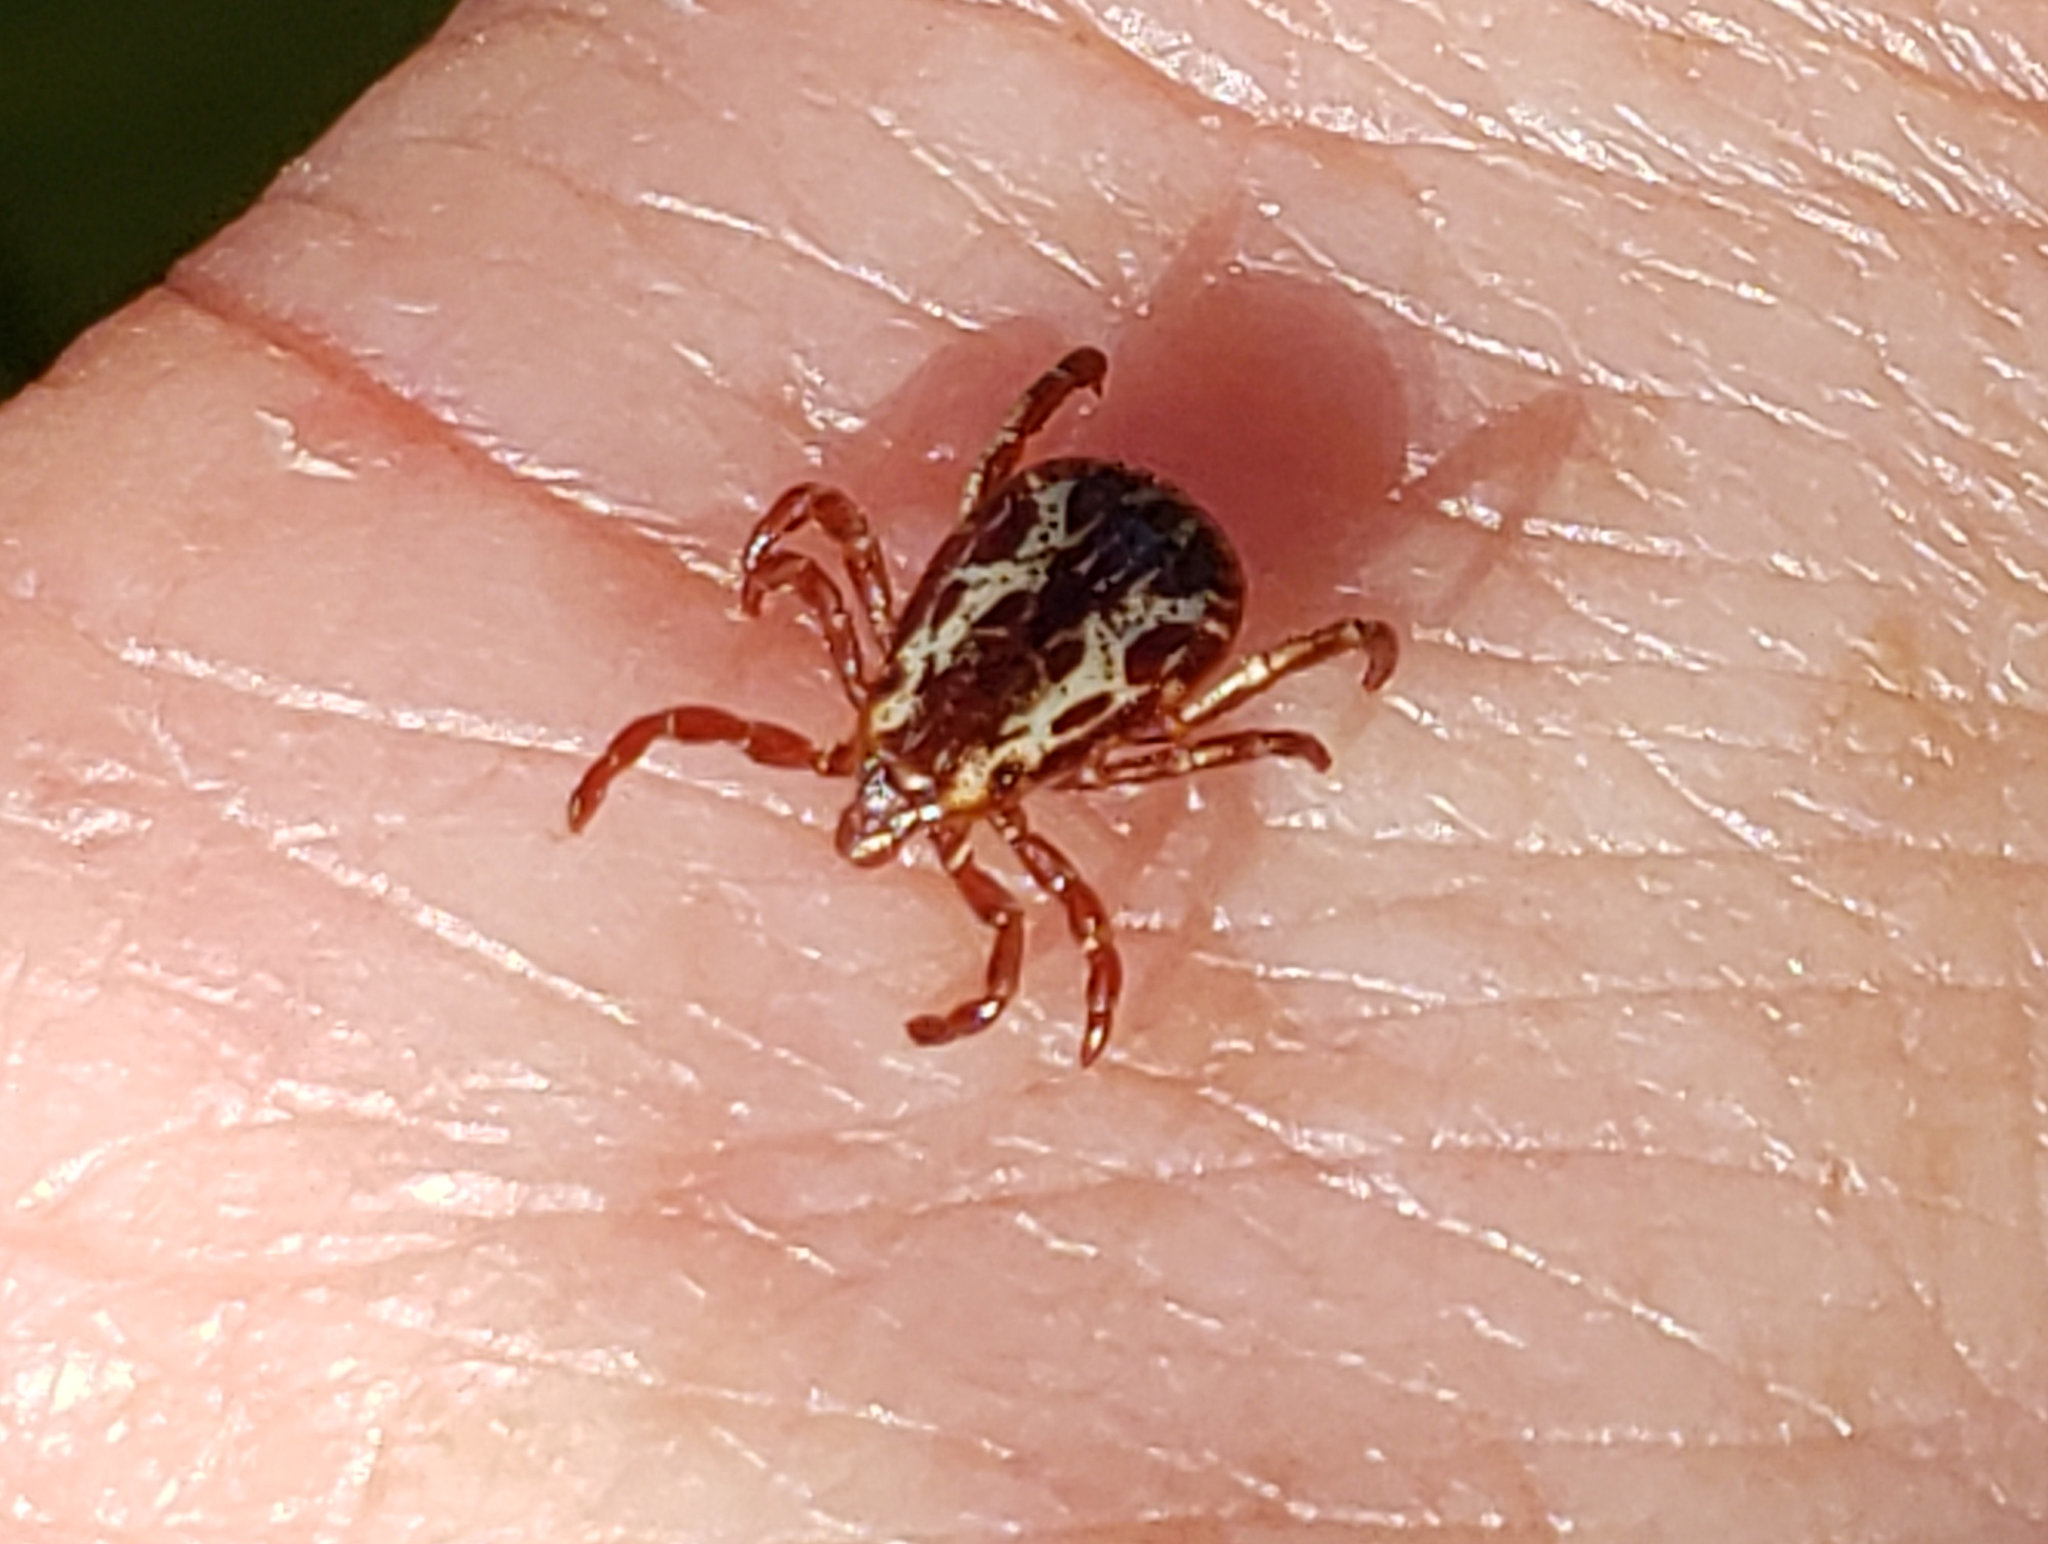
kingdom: Animalia
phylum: Arthropoda
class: Arachnida
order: Ixodida
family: Ixodidae
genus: Dermacentor
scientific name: Dermacentor variabilis
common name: American dog tick
